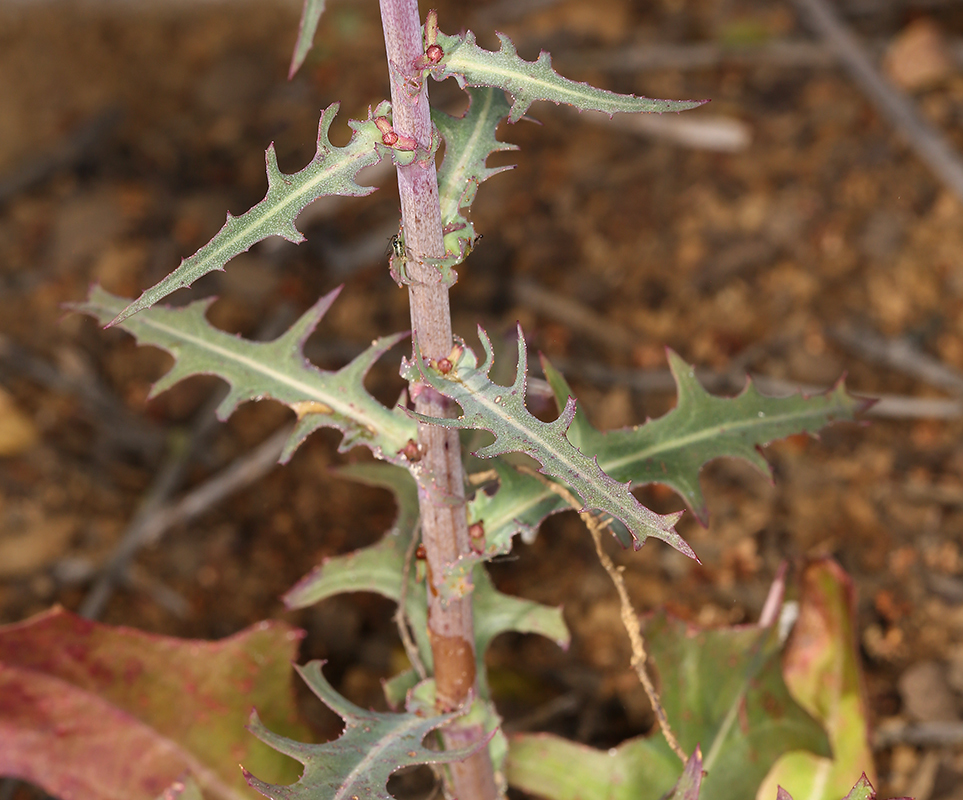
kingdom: Plantae
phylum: Tracheophyta
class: Magnoliopsida
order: Asterales
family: Asteraceae
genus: Rafinesquia
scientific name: Rafinesquia californica
